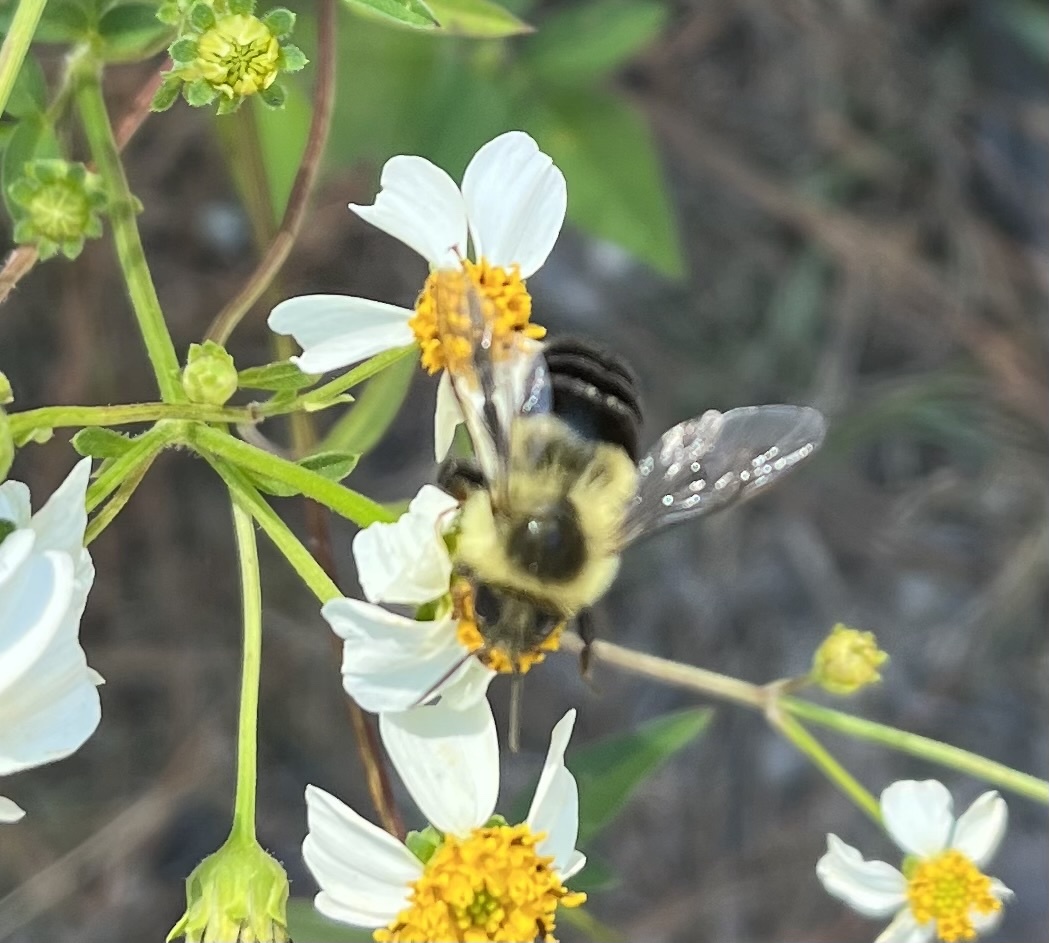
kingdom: Animalia
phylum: Arthropoda
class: Insecta
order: Hymenoptera
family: Apidae
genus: Bombus
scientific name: Bombus impatiens
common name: Common eastern bumble bee
